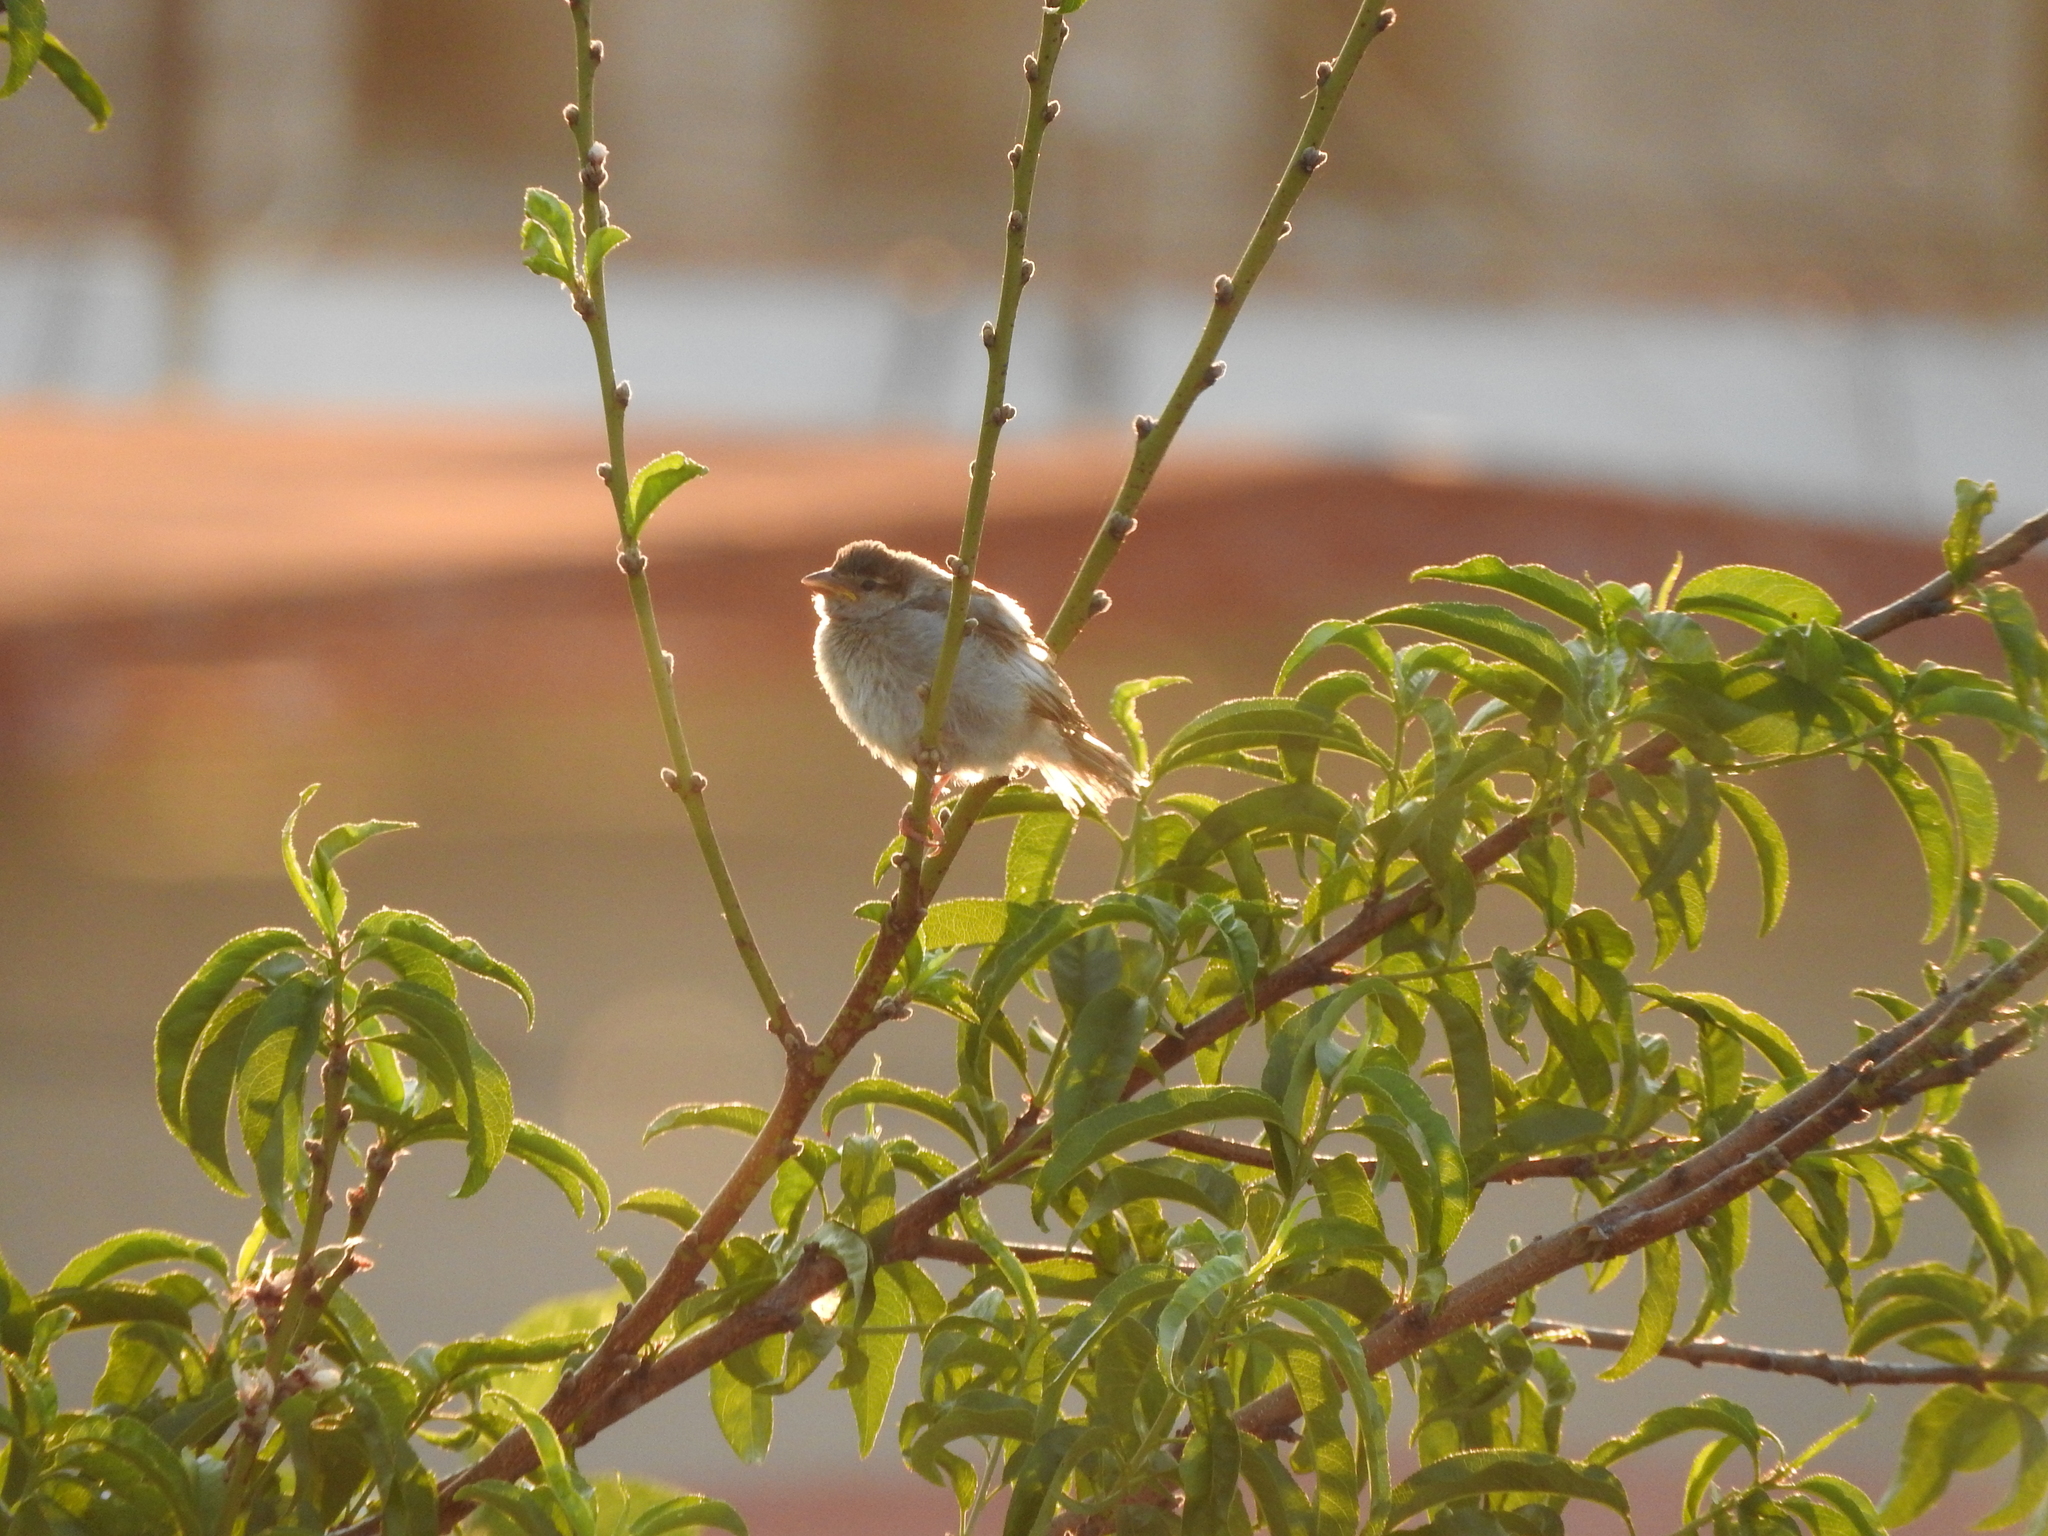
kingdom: Animalia
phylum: Chordata
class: Aves
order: Passeriformes
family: Passeridae
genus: Passer
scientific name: Passer domesticus
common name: House sparrow
